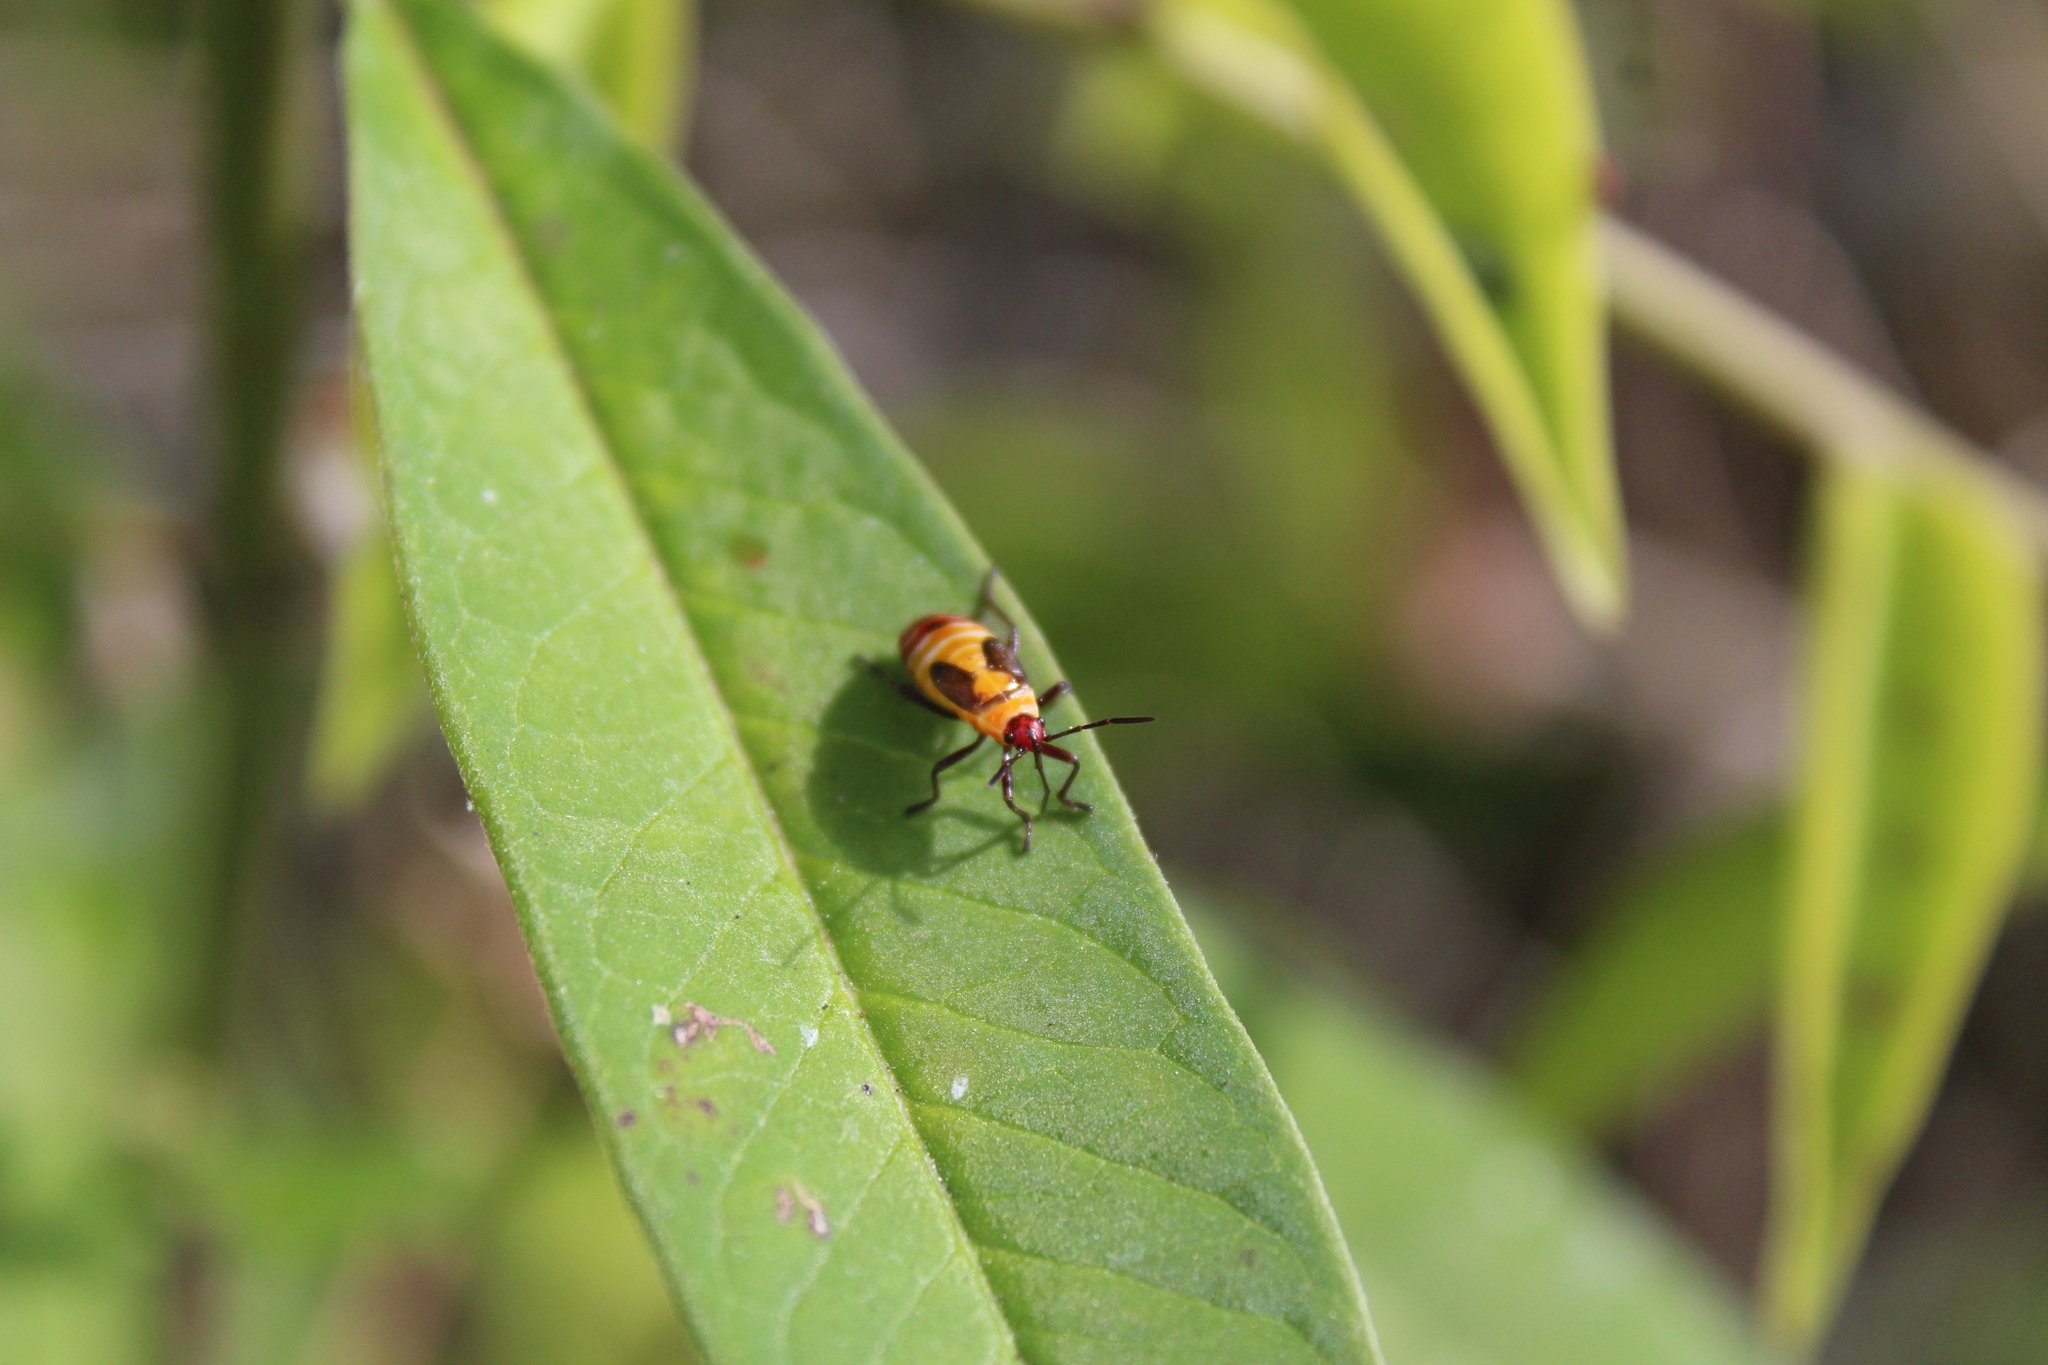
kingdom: Animalia
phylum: Arthropoda
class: Insecta
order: Hemiptera
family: Lygaeidae
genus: Oncopeltus
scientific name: Oncopeltus cingulifer
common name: Lygaeid bug
